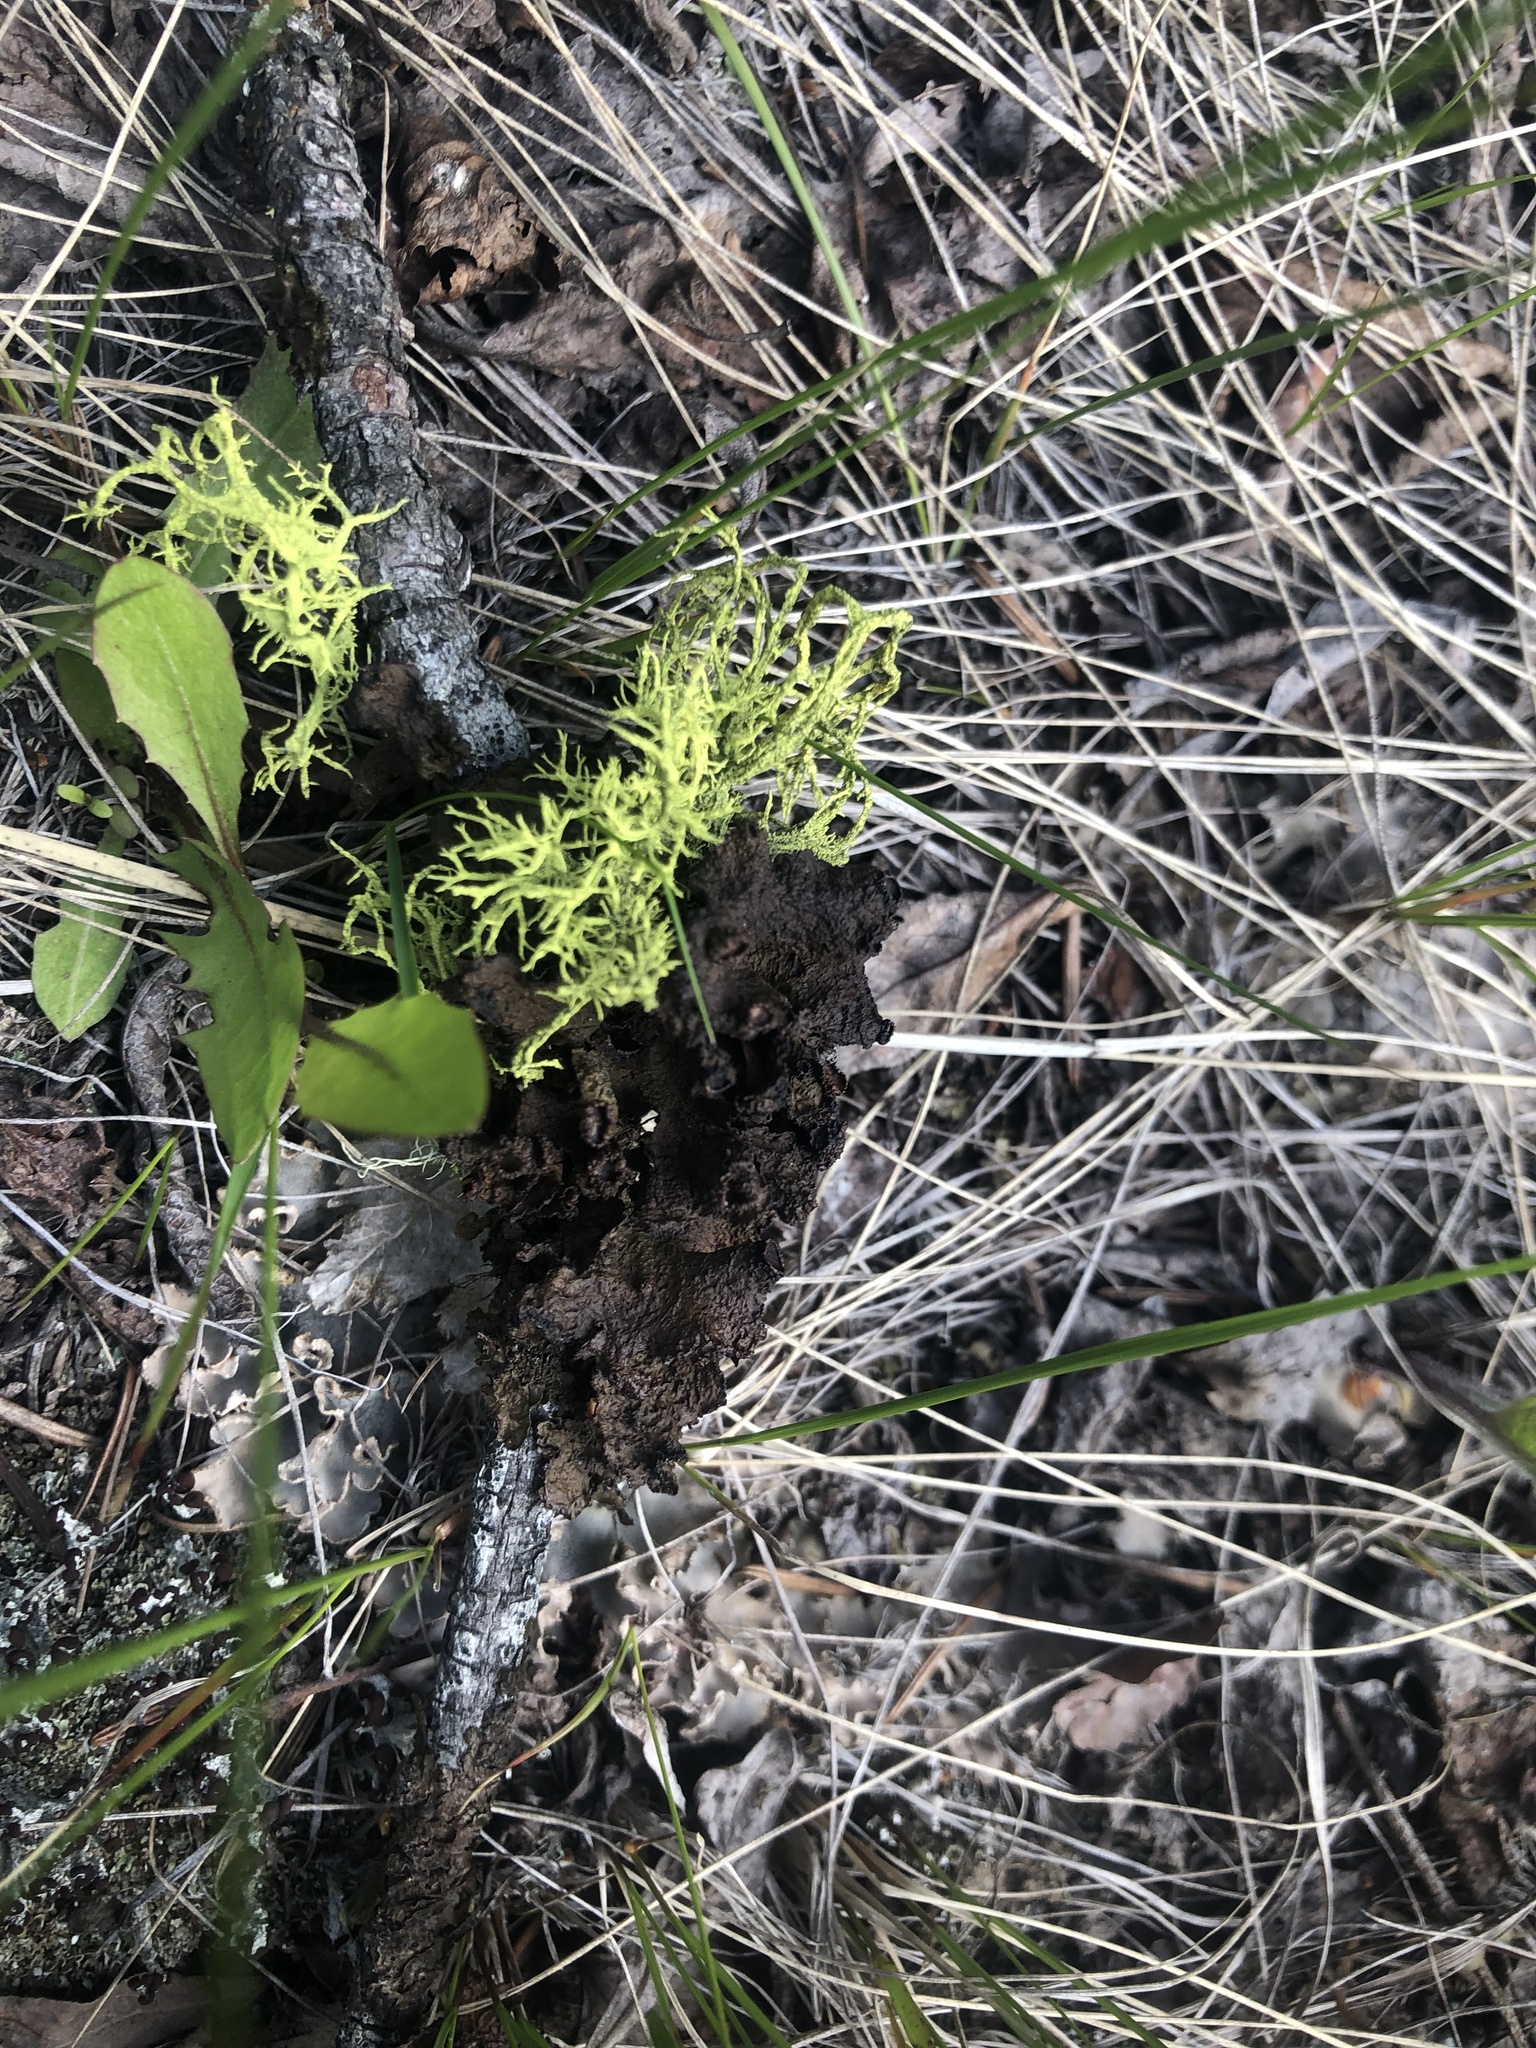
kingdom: Fungi
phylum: Ascomycota
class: Lecanoromycetes
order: Lecanorales
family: Parmeliaceae
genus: Letharia
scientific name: Letharia vulpina
